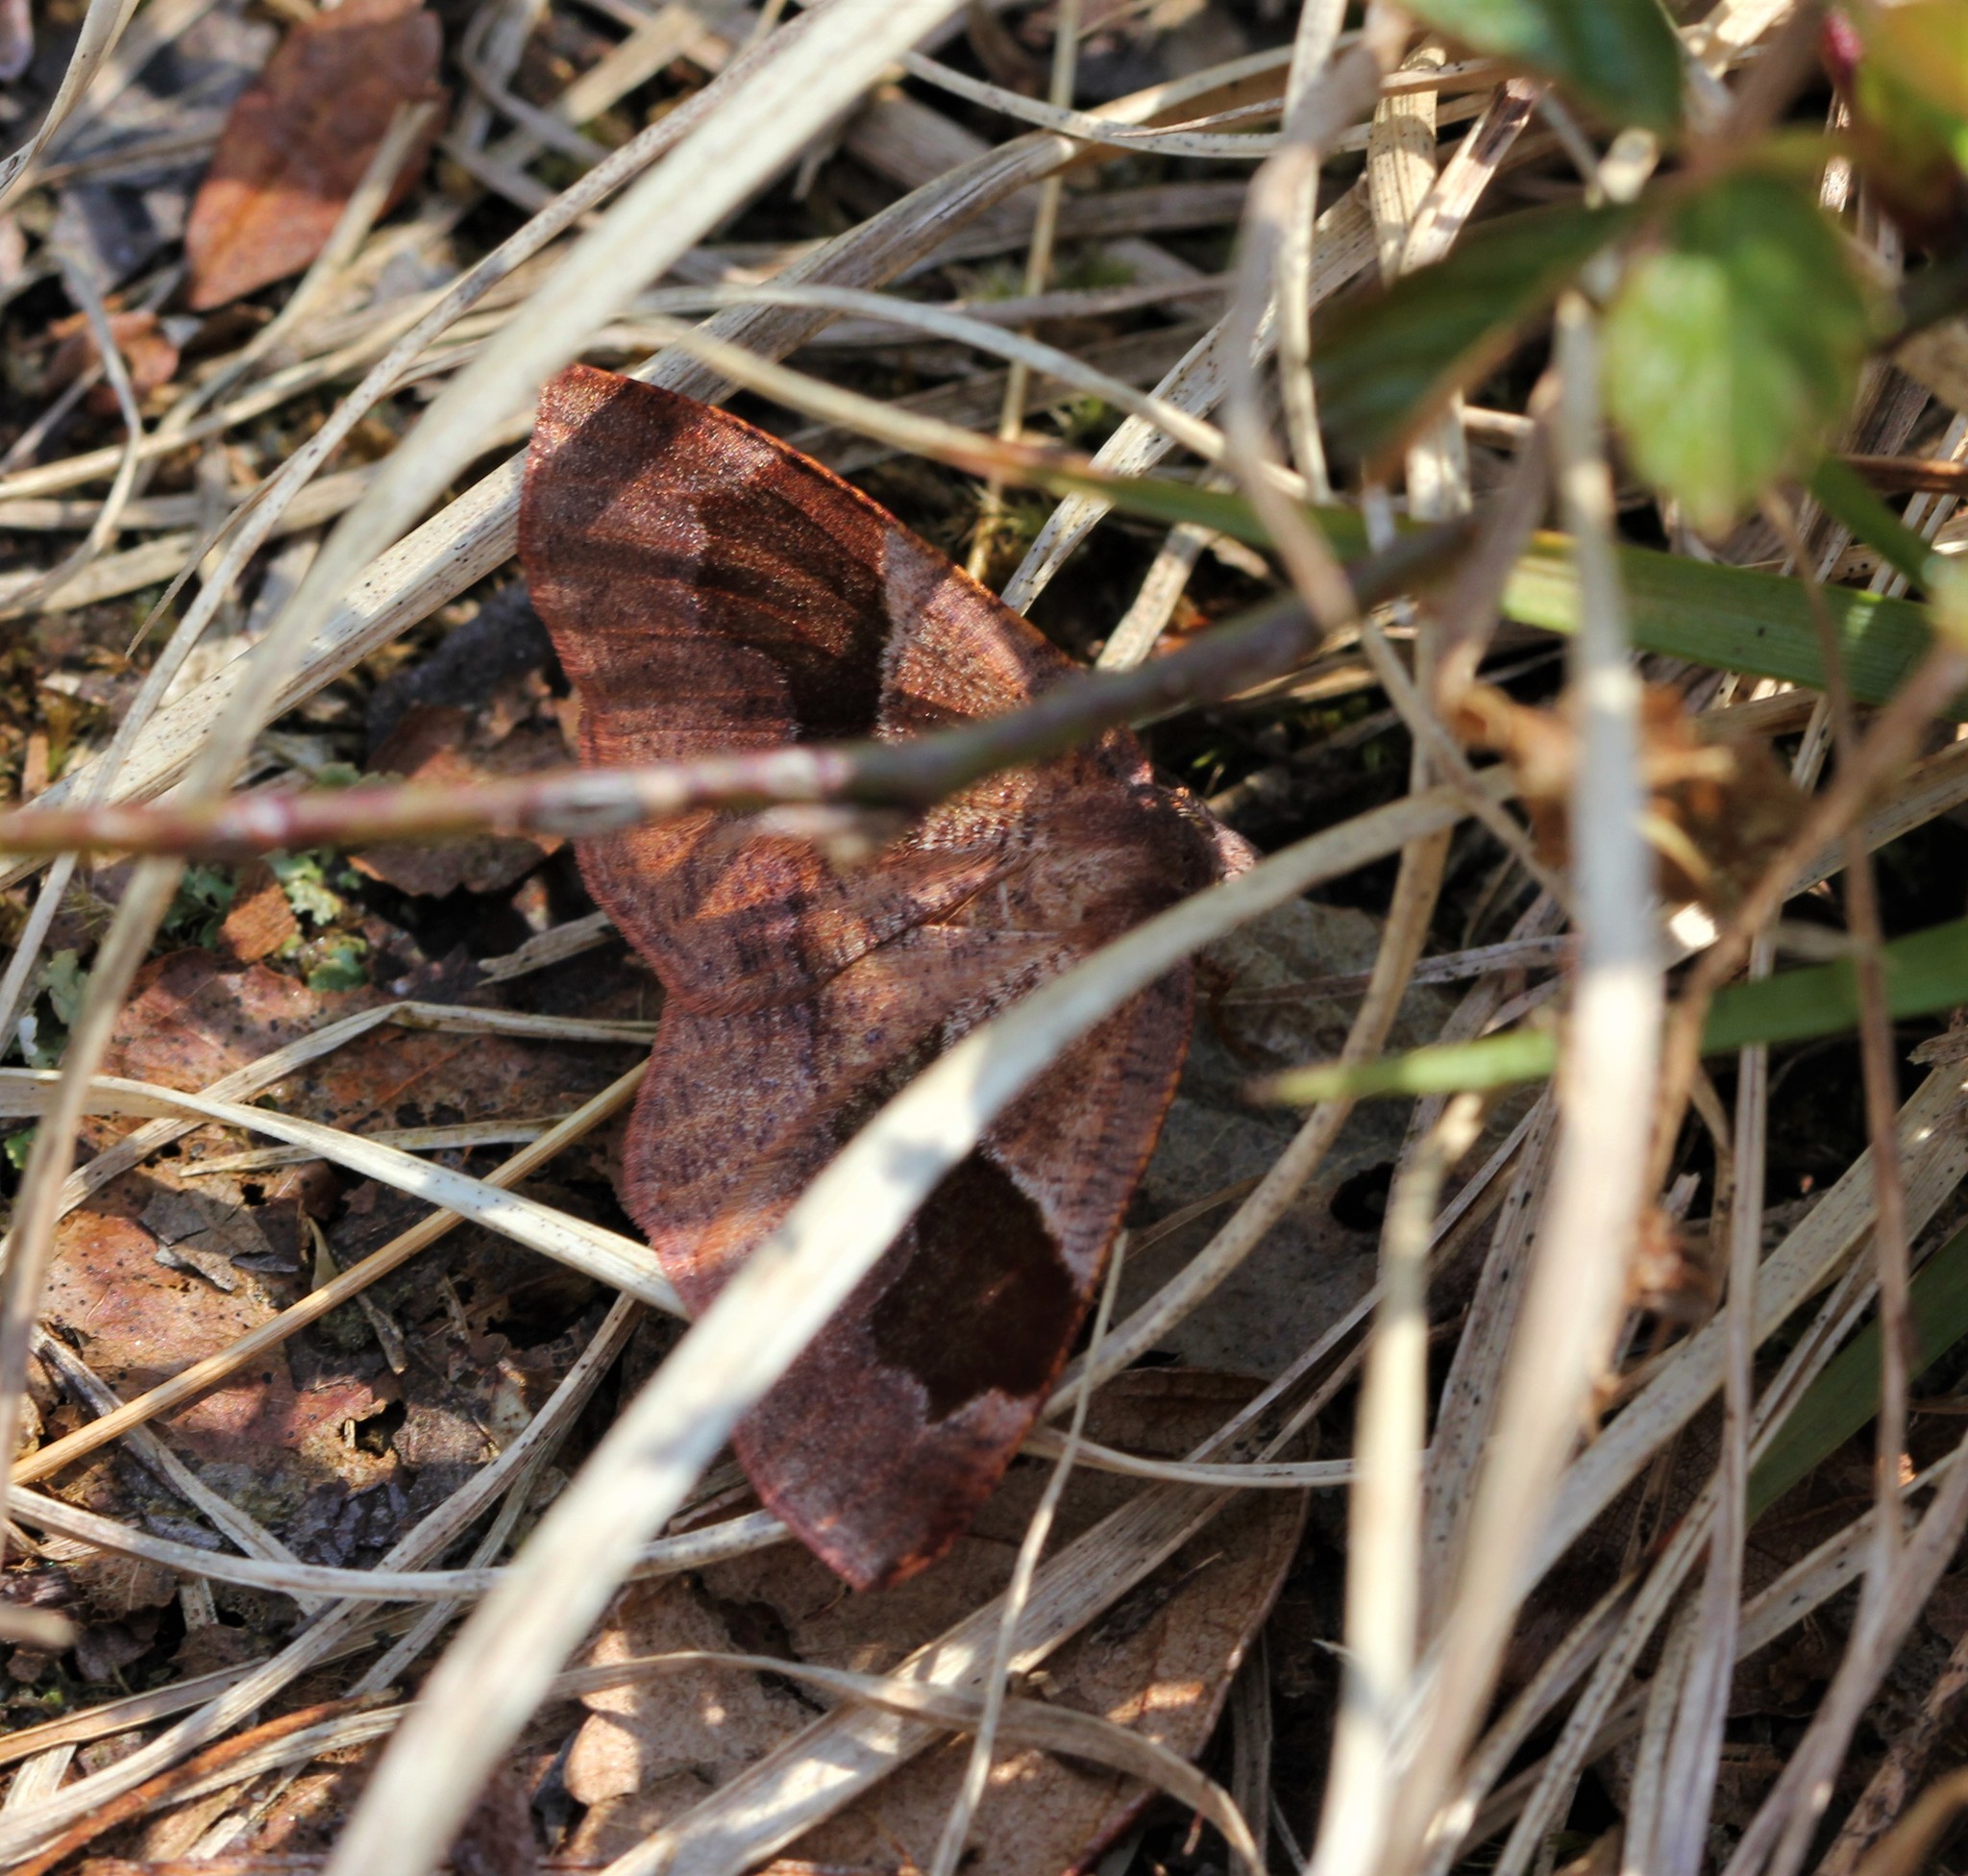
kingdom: Animalia
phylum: Arthropoda
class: Insecta
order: Lepidoptera
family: Geometridae
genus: Plagodis
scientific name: Plagodis pulveraria
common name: Barred umber
